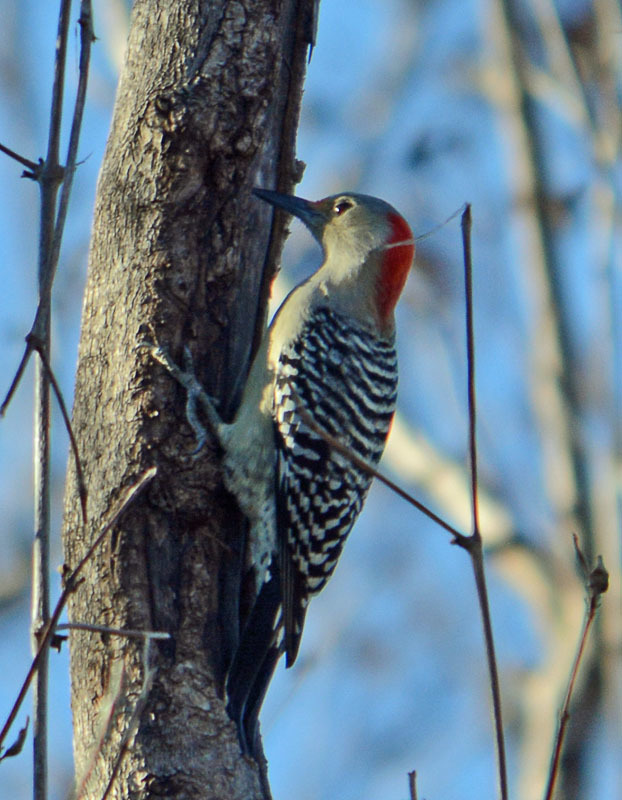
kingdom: Animalia
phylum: Chordata
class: Aves
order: Piciformes
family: Picidae
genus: Melanerpes
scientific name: Melanerpes carolinus
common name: Red-bellied woodpecker
